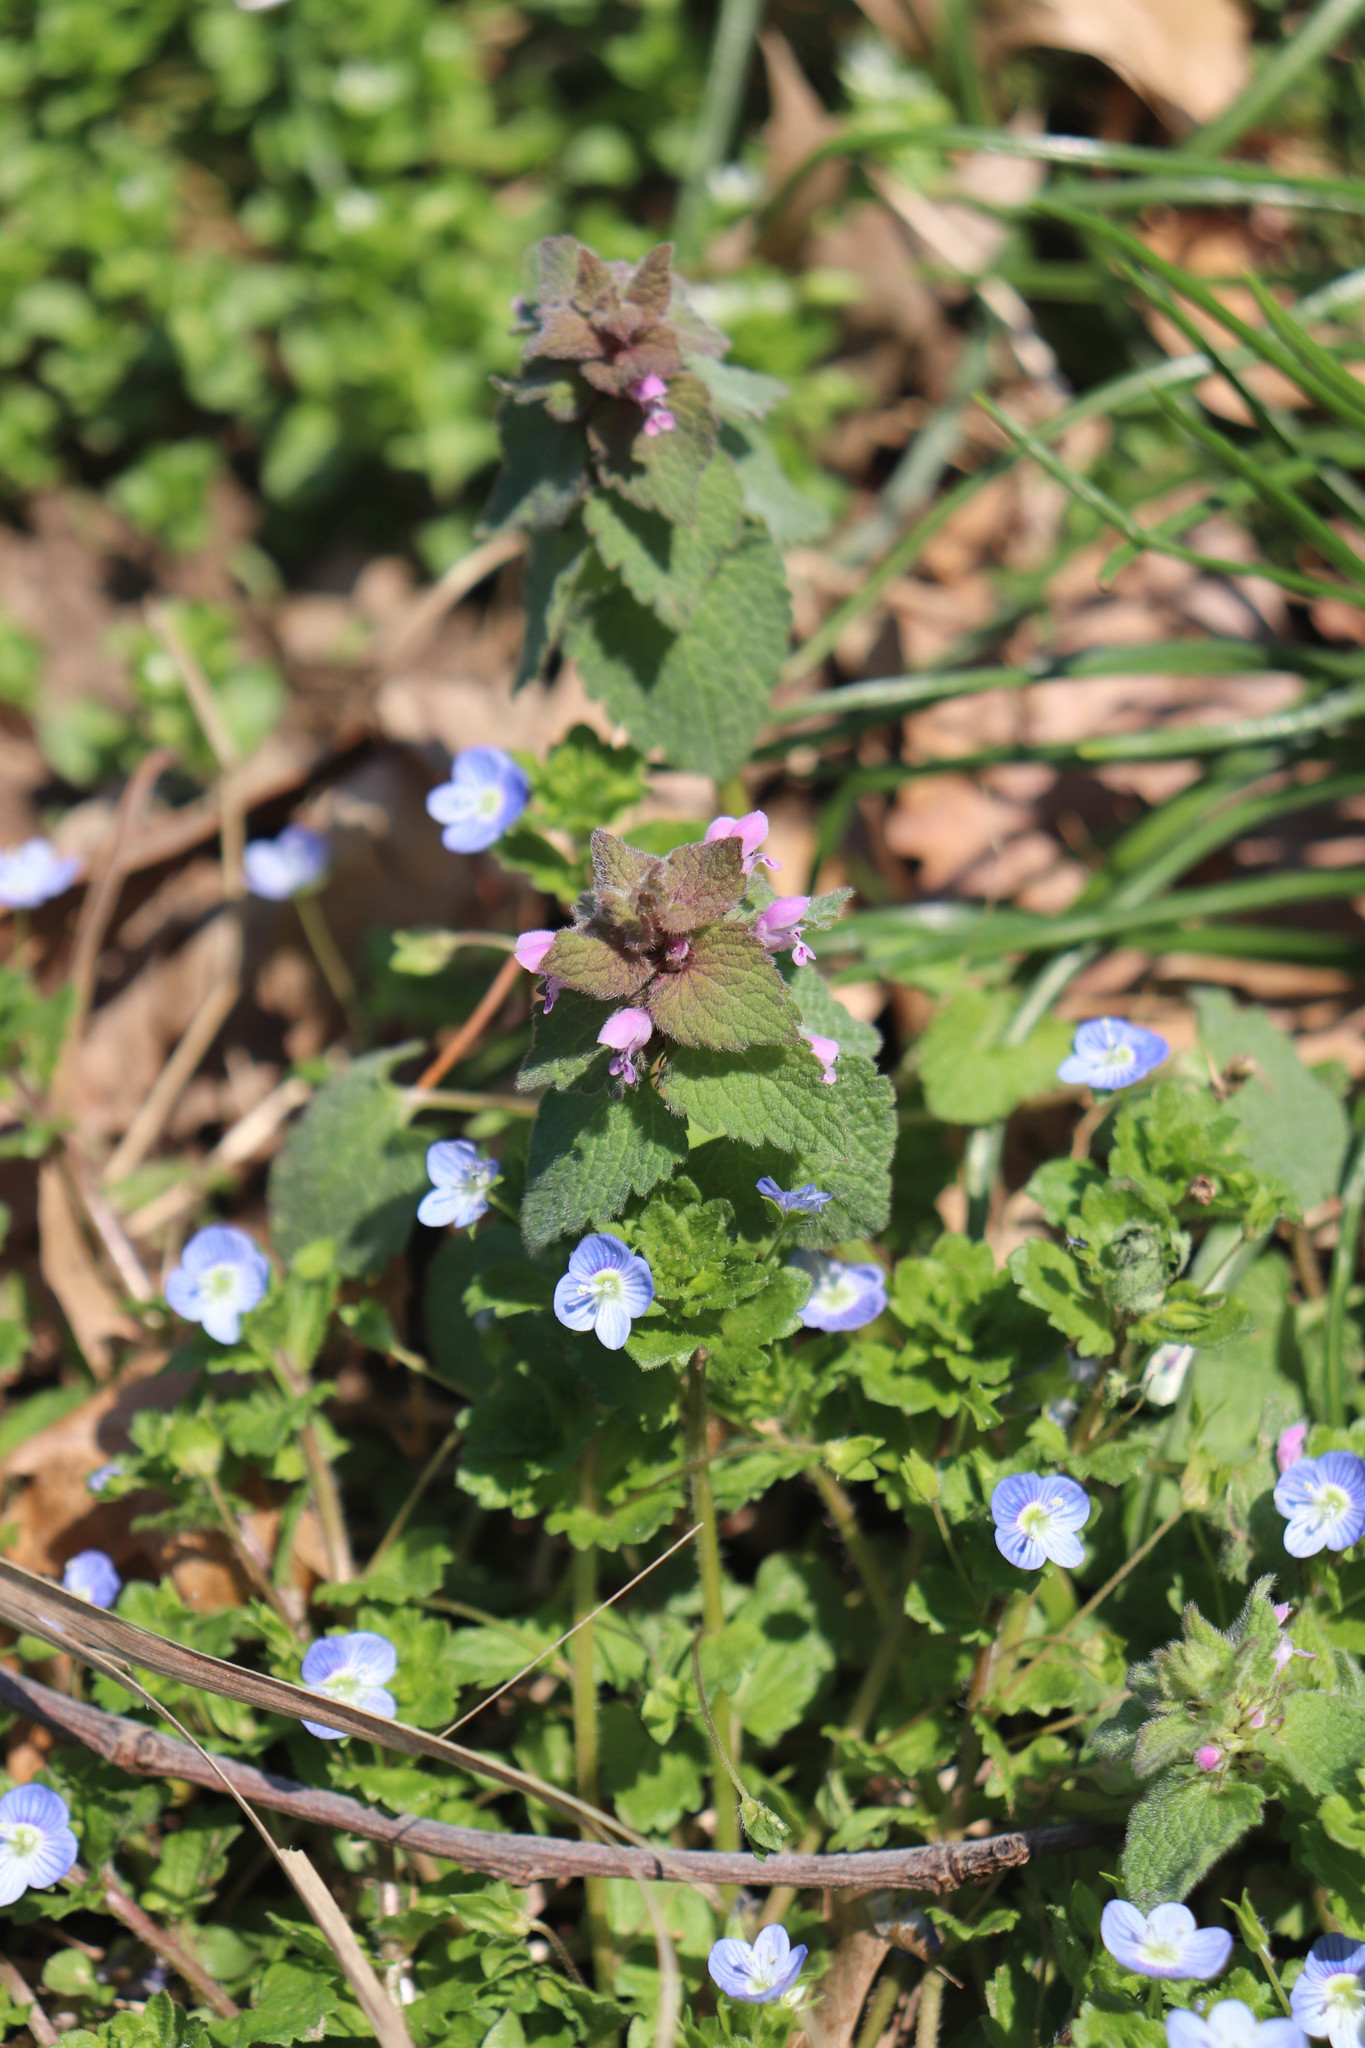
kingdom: Plantae
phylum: Tracheophyta
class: Magnoliopsida
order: Lamiales
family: Lamiaceae
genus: Lamium
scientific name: Lamium purpureum
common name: Red dead-nettle
